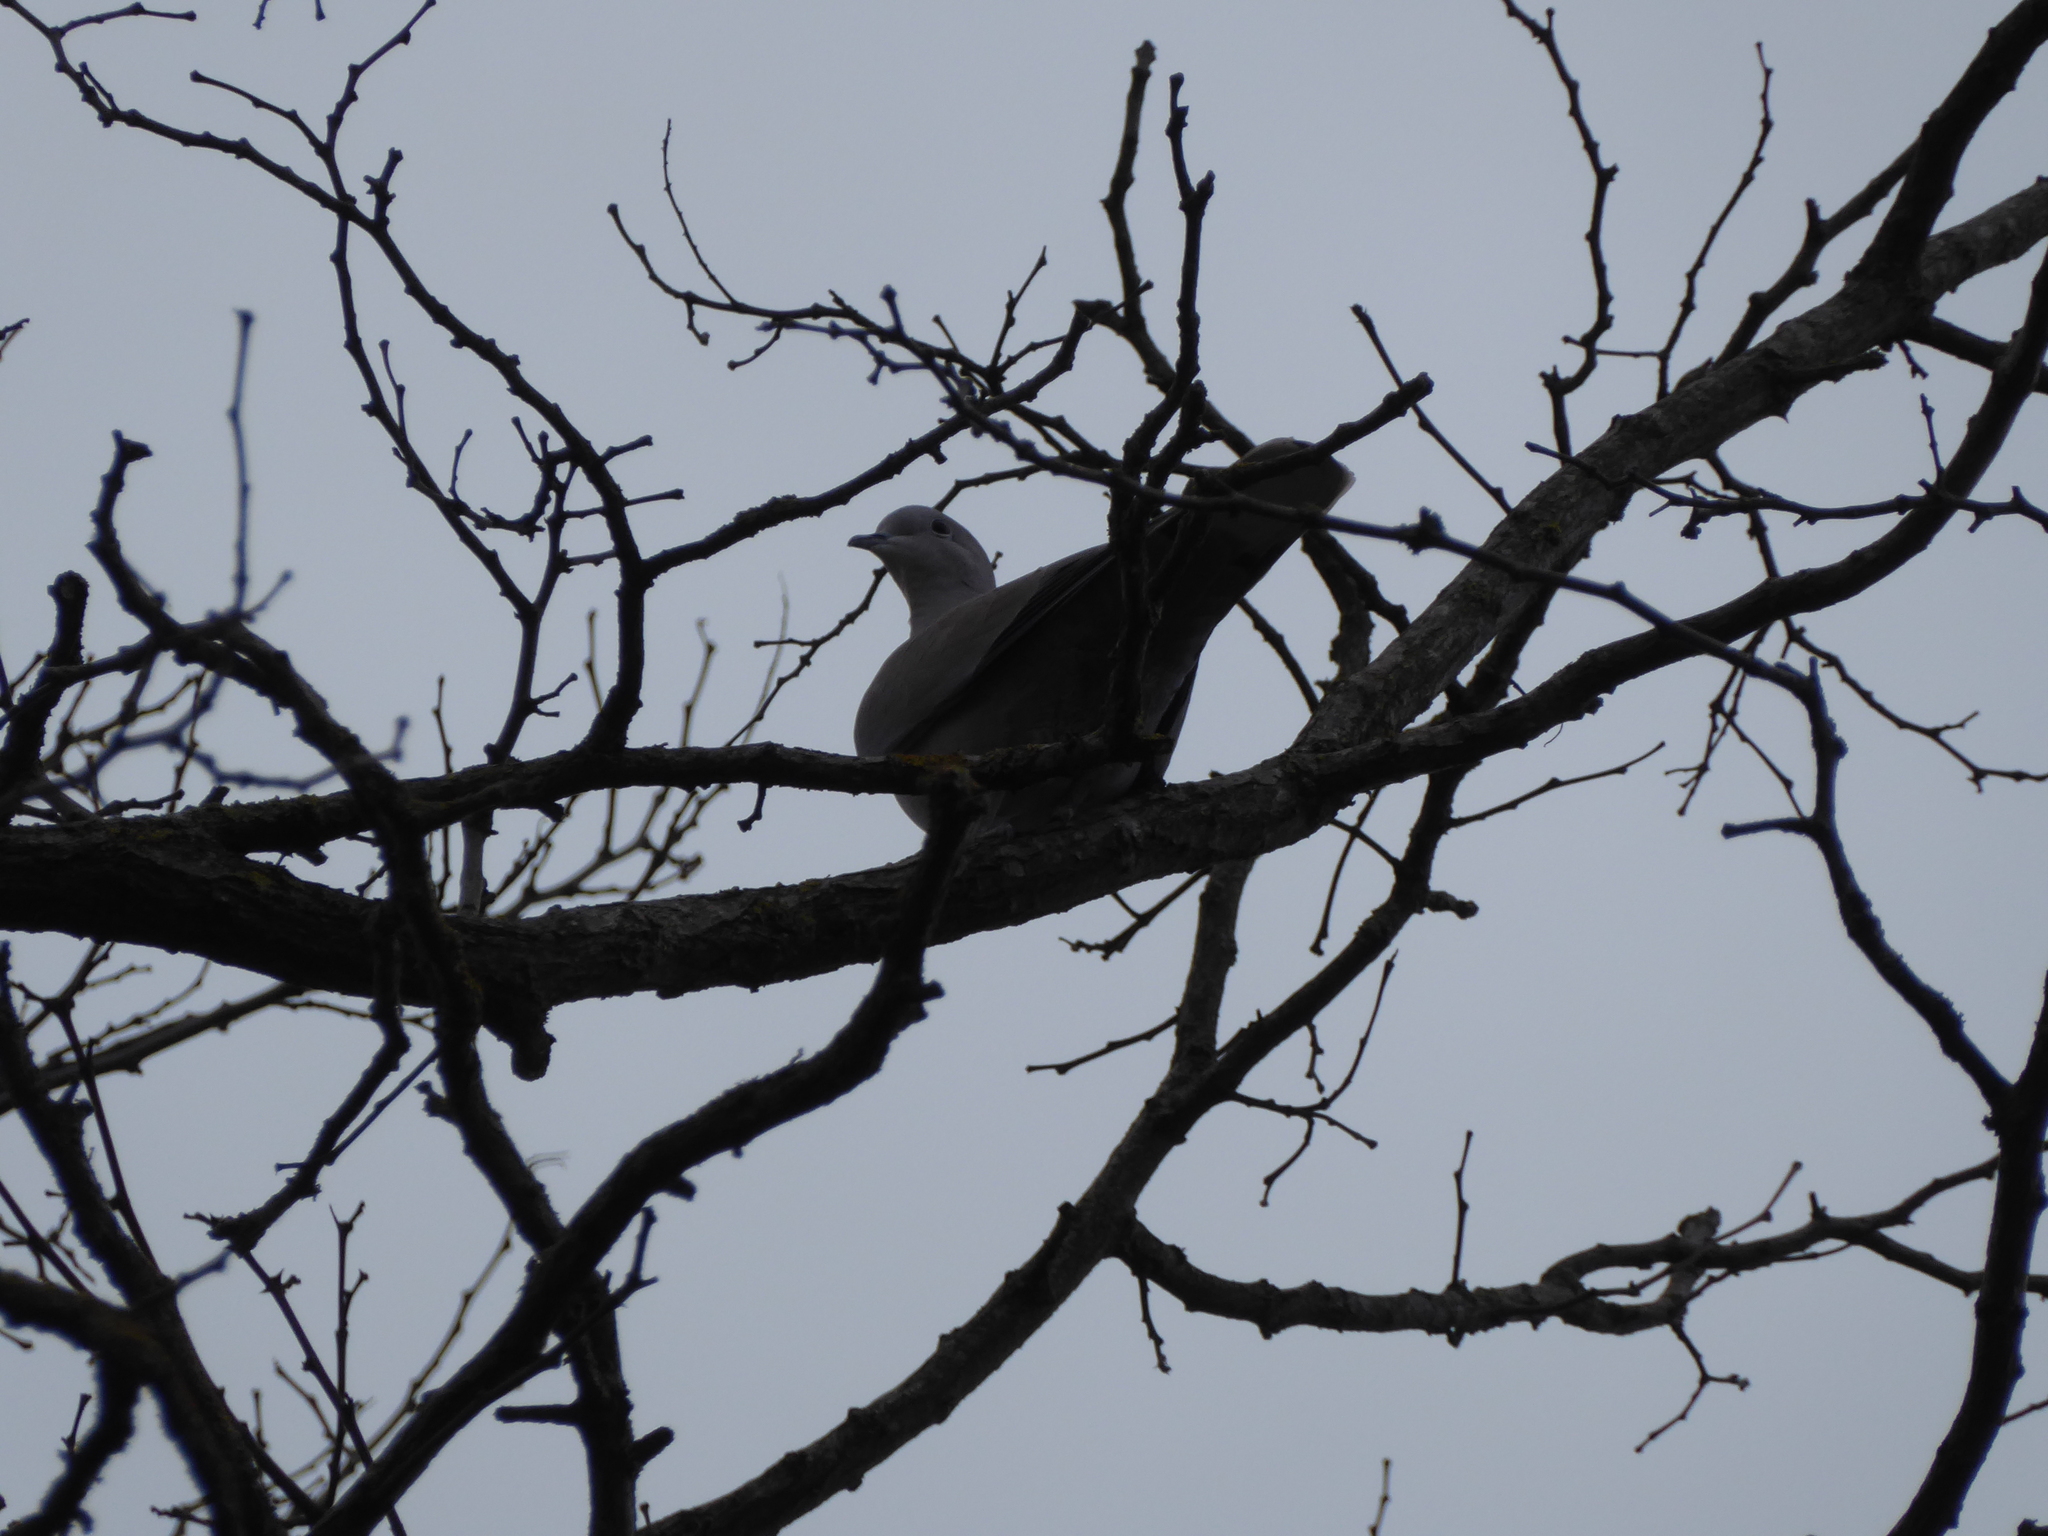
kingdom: Animalia
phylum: Chordata
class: Aves
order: Columbiformes
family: Columbidae
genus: Streptopelia
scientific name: Streptopelia decaocto
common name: Eurasian collared dove
